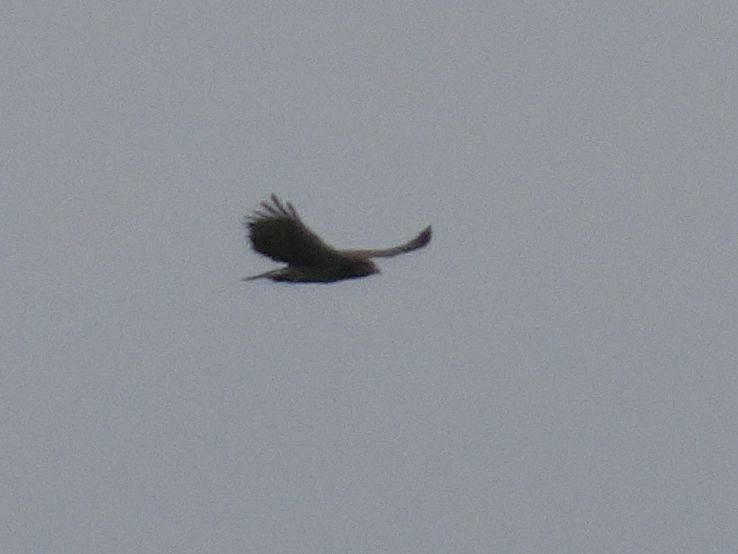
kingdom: Animalia
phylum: Chordata
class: Aves
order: Accipitriformes
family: Accipitridae
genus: Circaetus
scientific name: Circaetus gallicus
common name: Short-toed snake eagle
